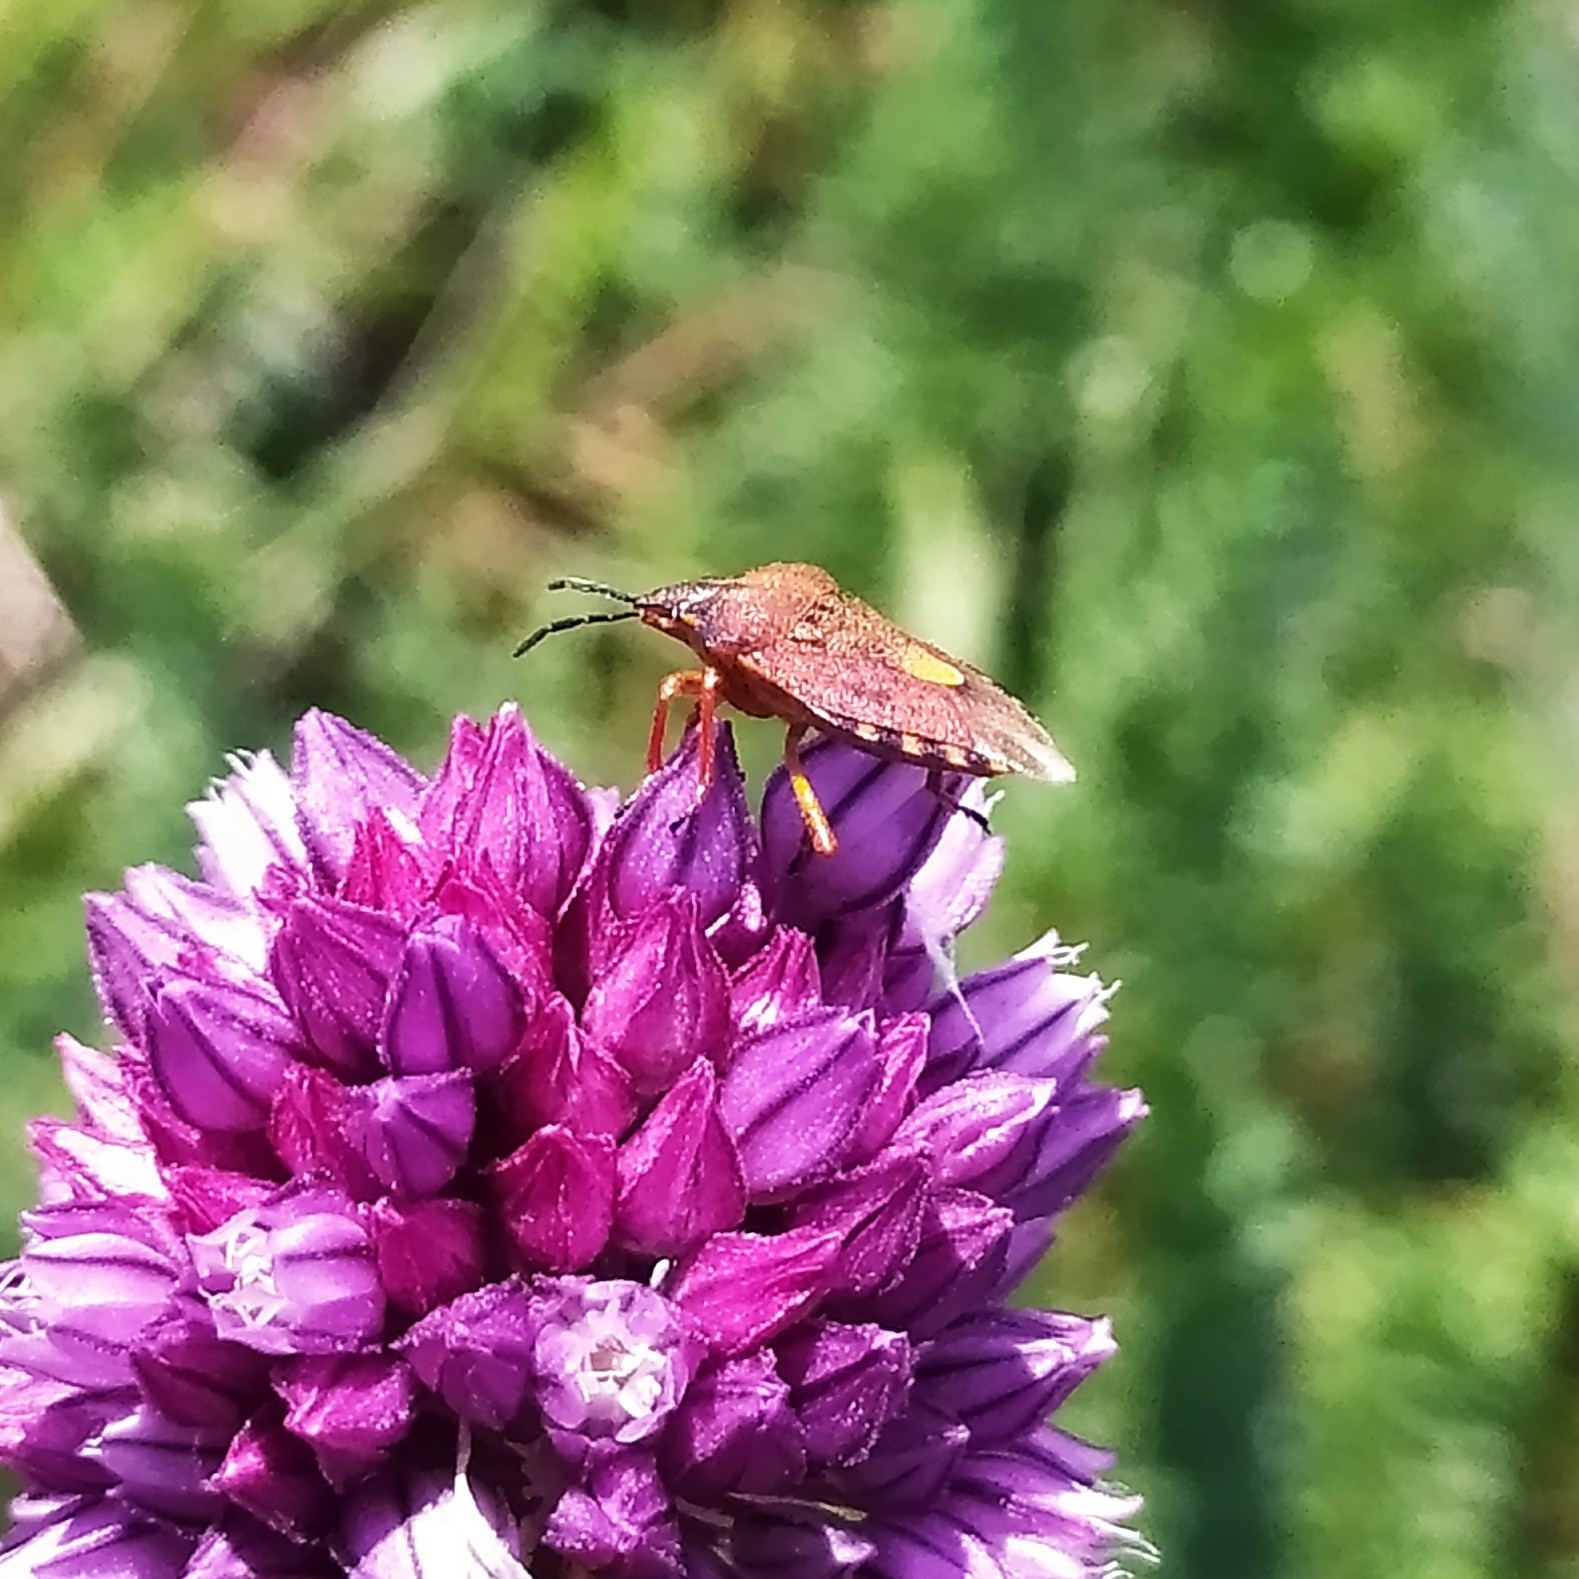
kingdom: Animalia
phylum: Arthropoda
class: Insecta
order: Hemiptera
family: Pentatomidae
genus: Carpocoris
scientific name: Carpocoris purpureipennis
